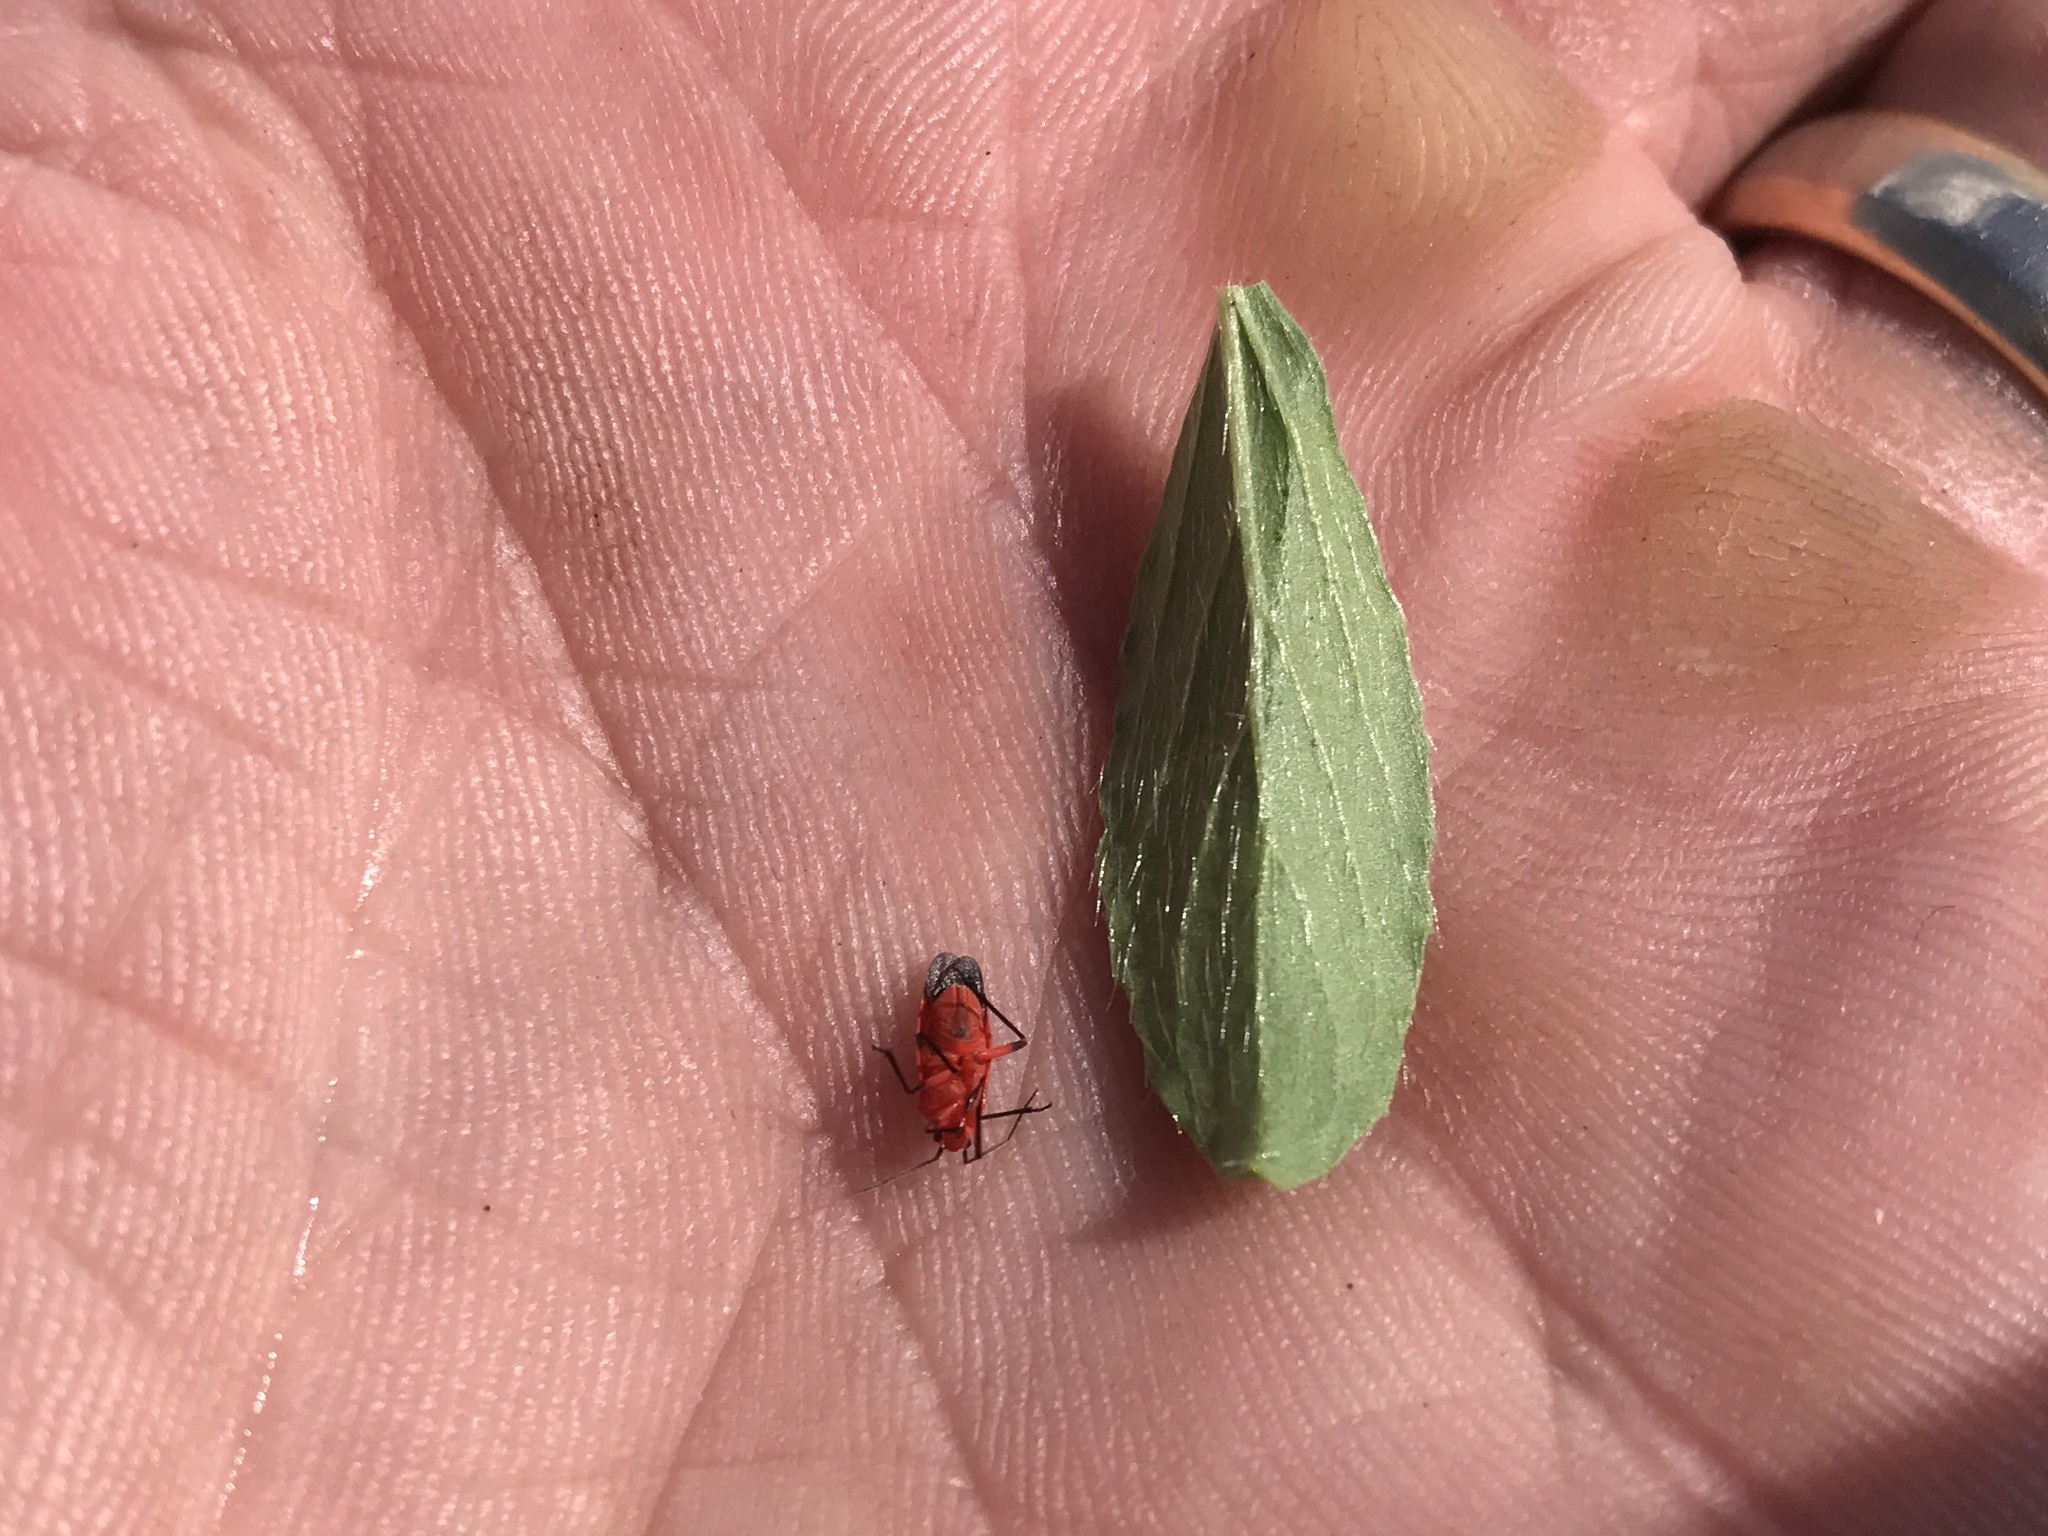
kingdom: Animalia
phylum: Arthropoda
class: Insecta
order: Hemiptera
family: Miridae
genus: Oncerometopus
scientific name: Oncerometopus nigriclavus
